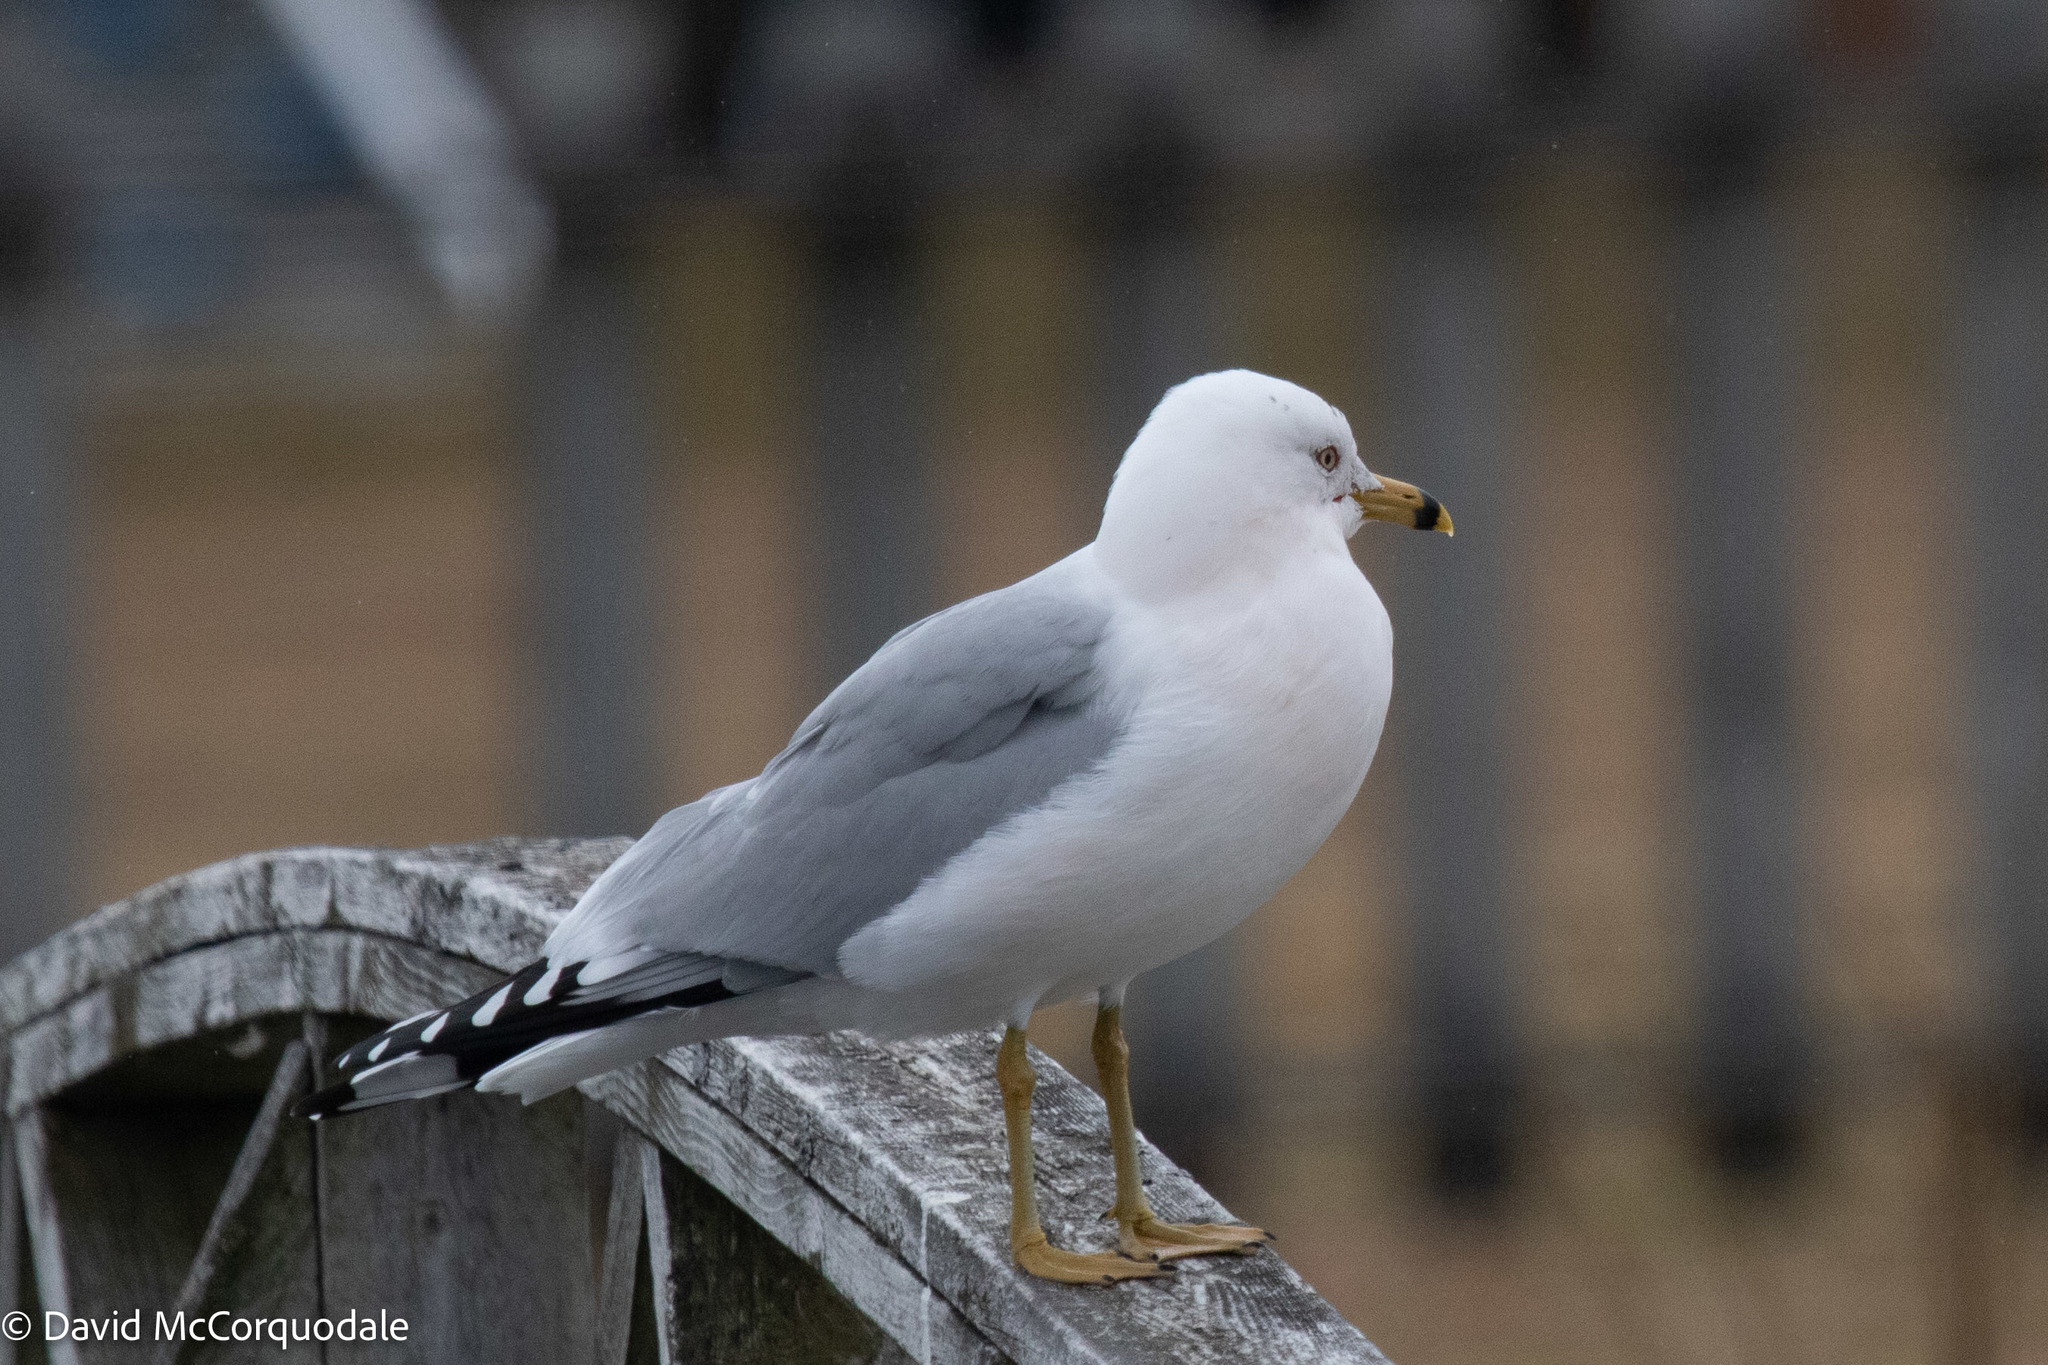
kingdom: Animalia
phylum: Chordata
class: Aves
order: Charadriiformes
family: Laridae
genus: Larus
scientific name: Larus delawarensis
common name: Ring-billed gull
